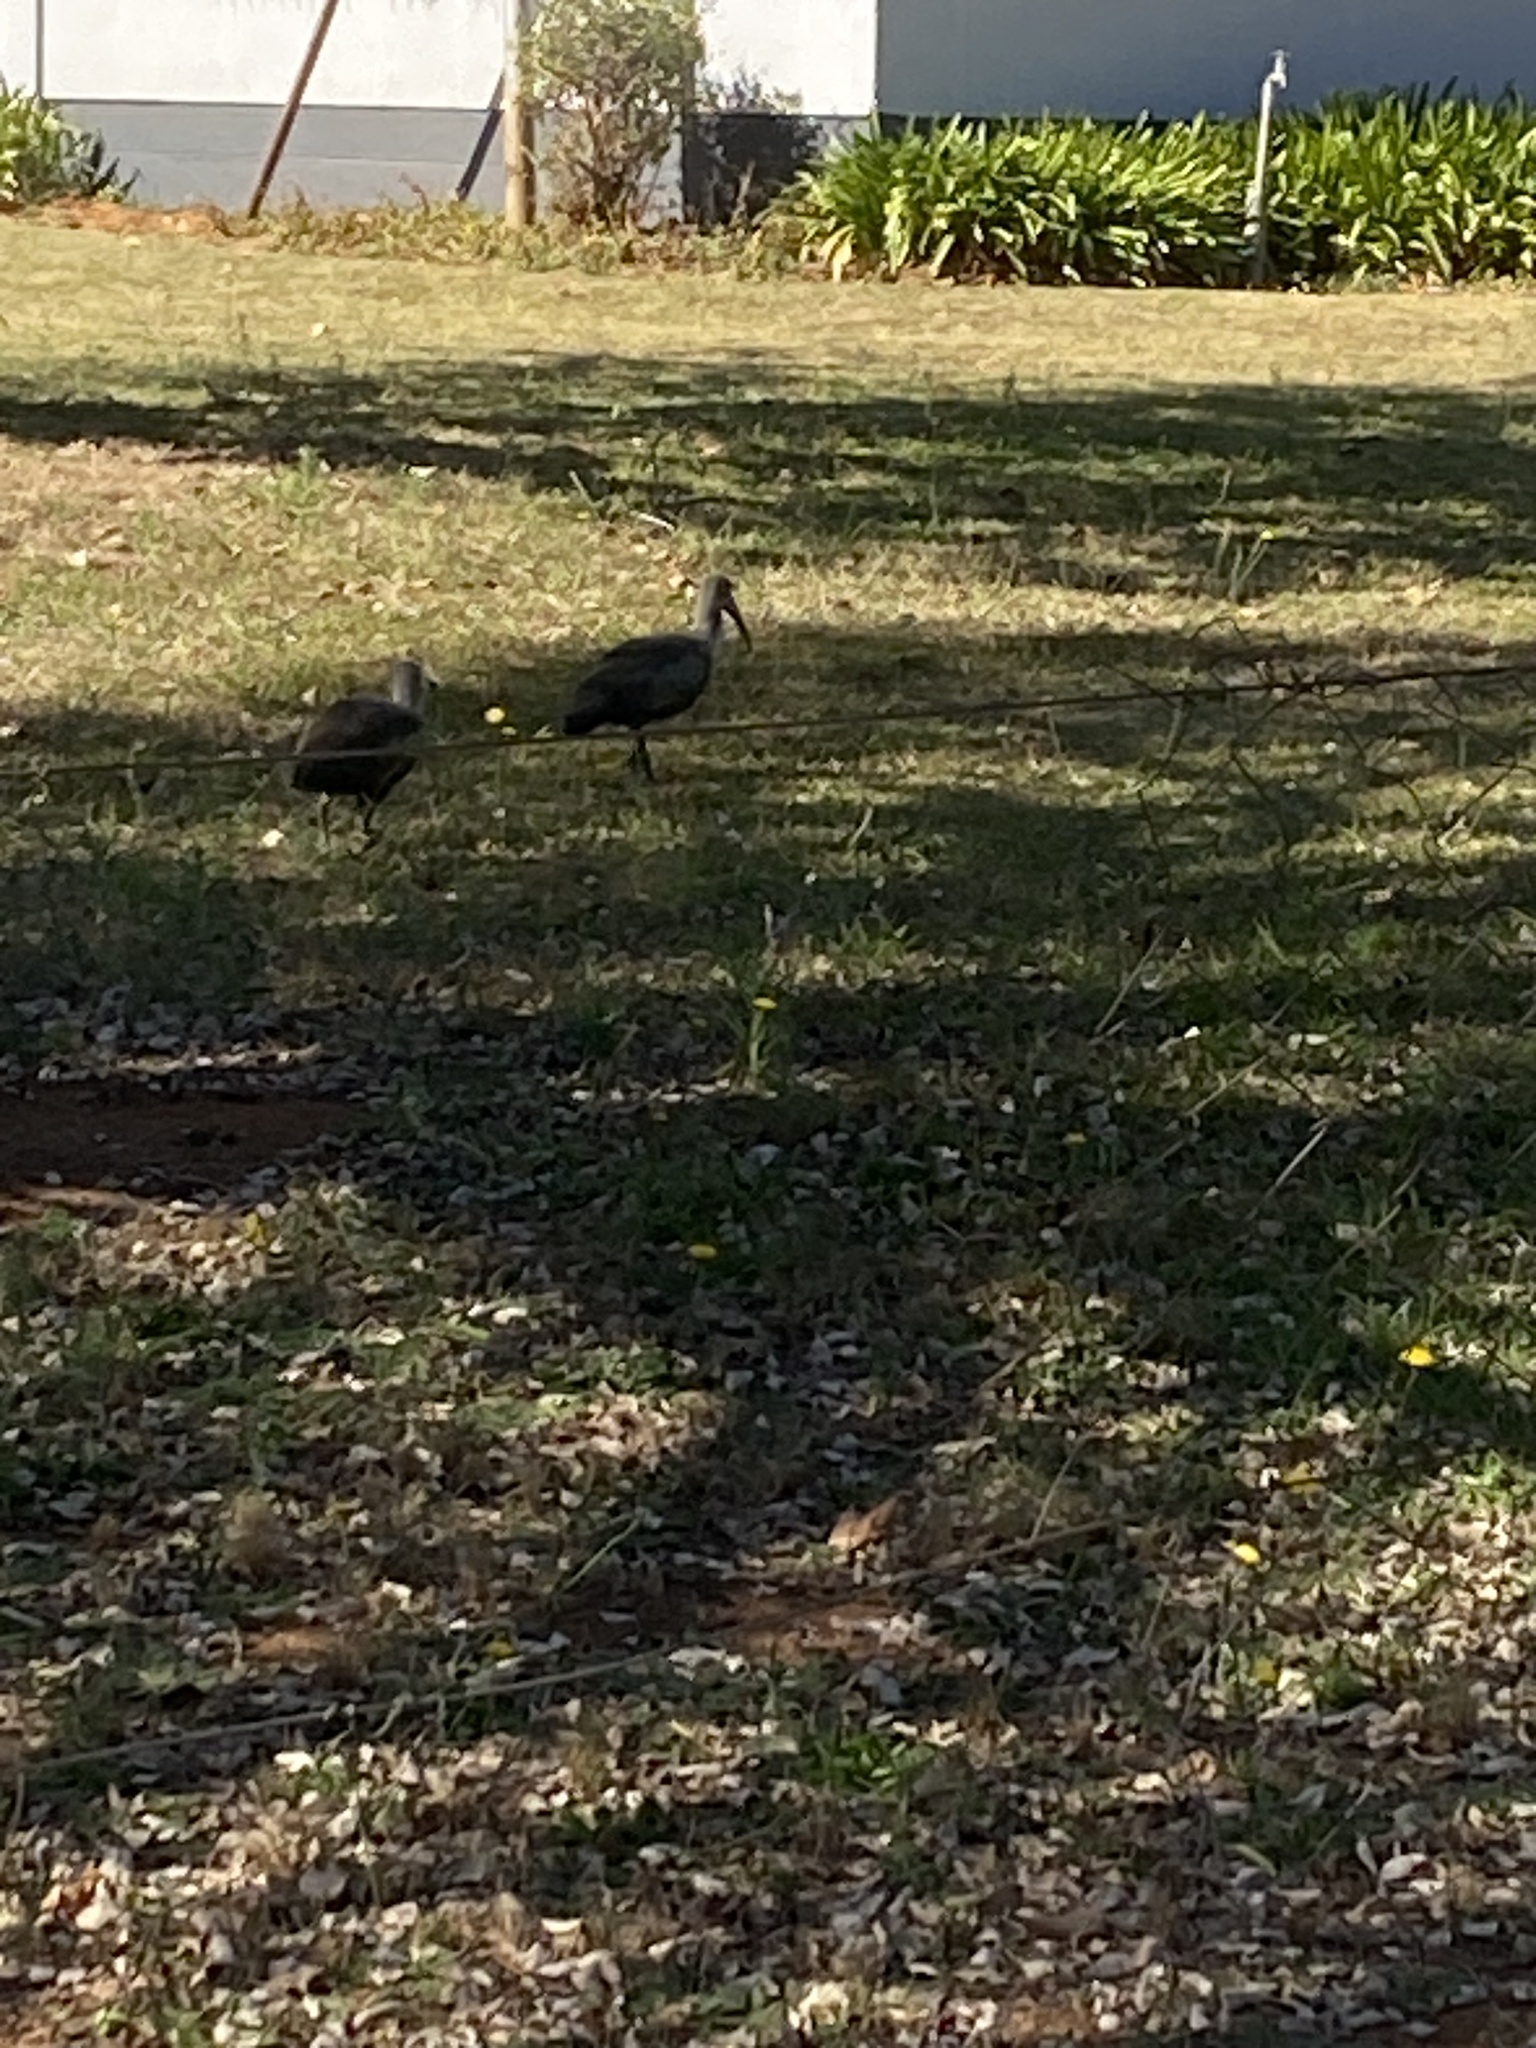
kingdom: Animalia
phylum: Chordata
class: Aves
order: Pelecaniformes
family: Threskiornithidae
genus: Bostrychia
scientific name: Bostrychia hagedash
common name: Hadada ibis
